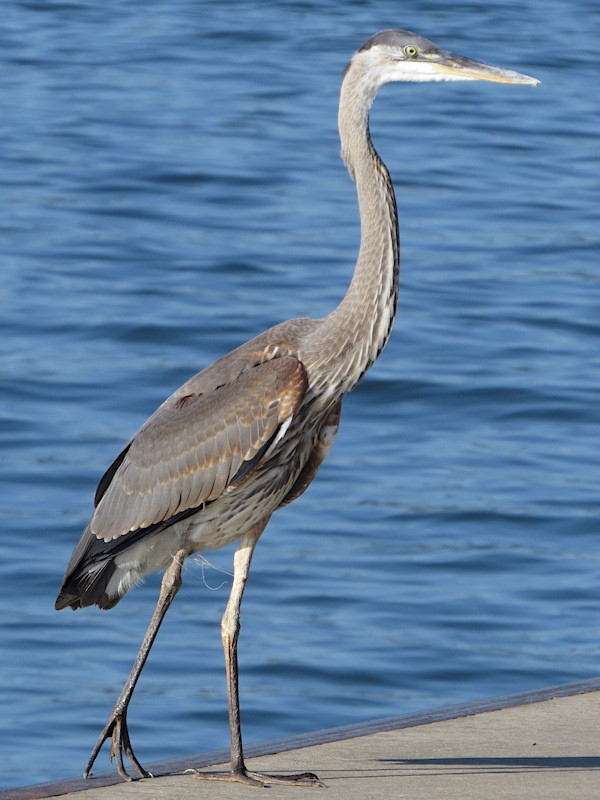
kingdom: Animalia
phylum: Chordata
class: Aves
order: Pelecaniformes
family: Ardeidae
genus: Ardea
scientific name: Ardea herodias
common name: Great blue heron
